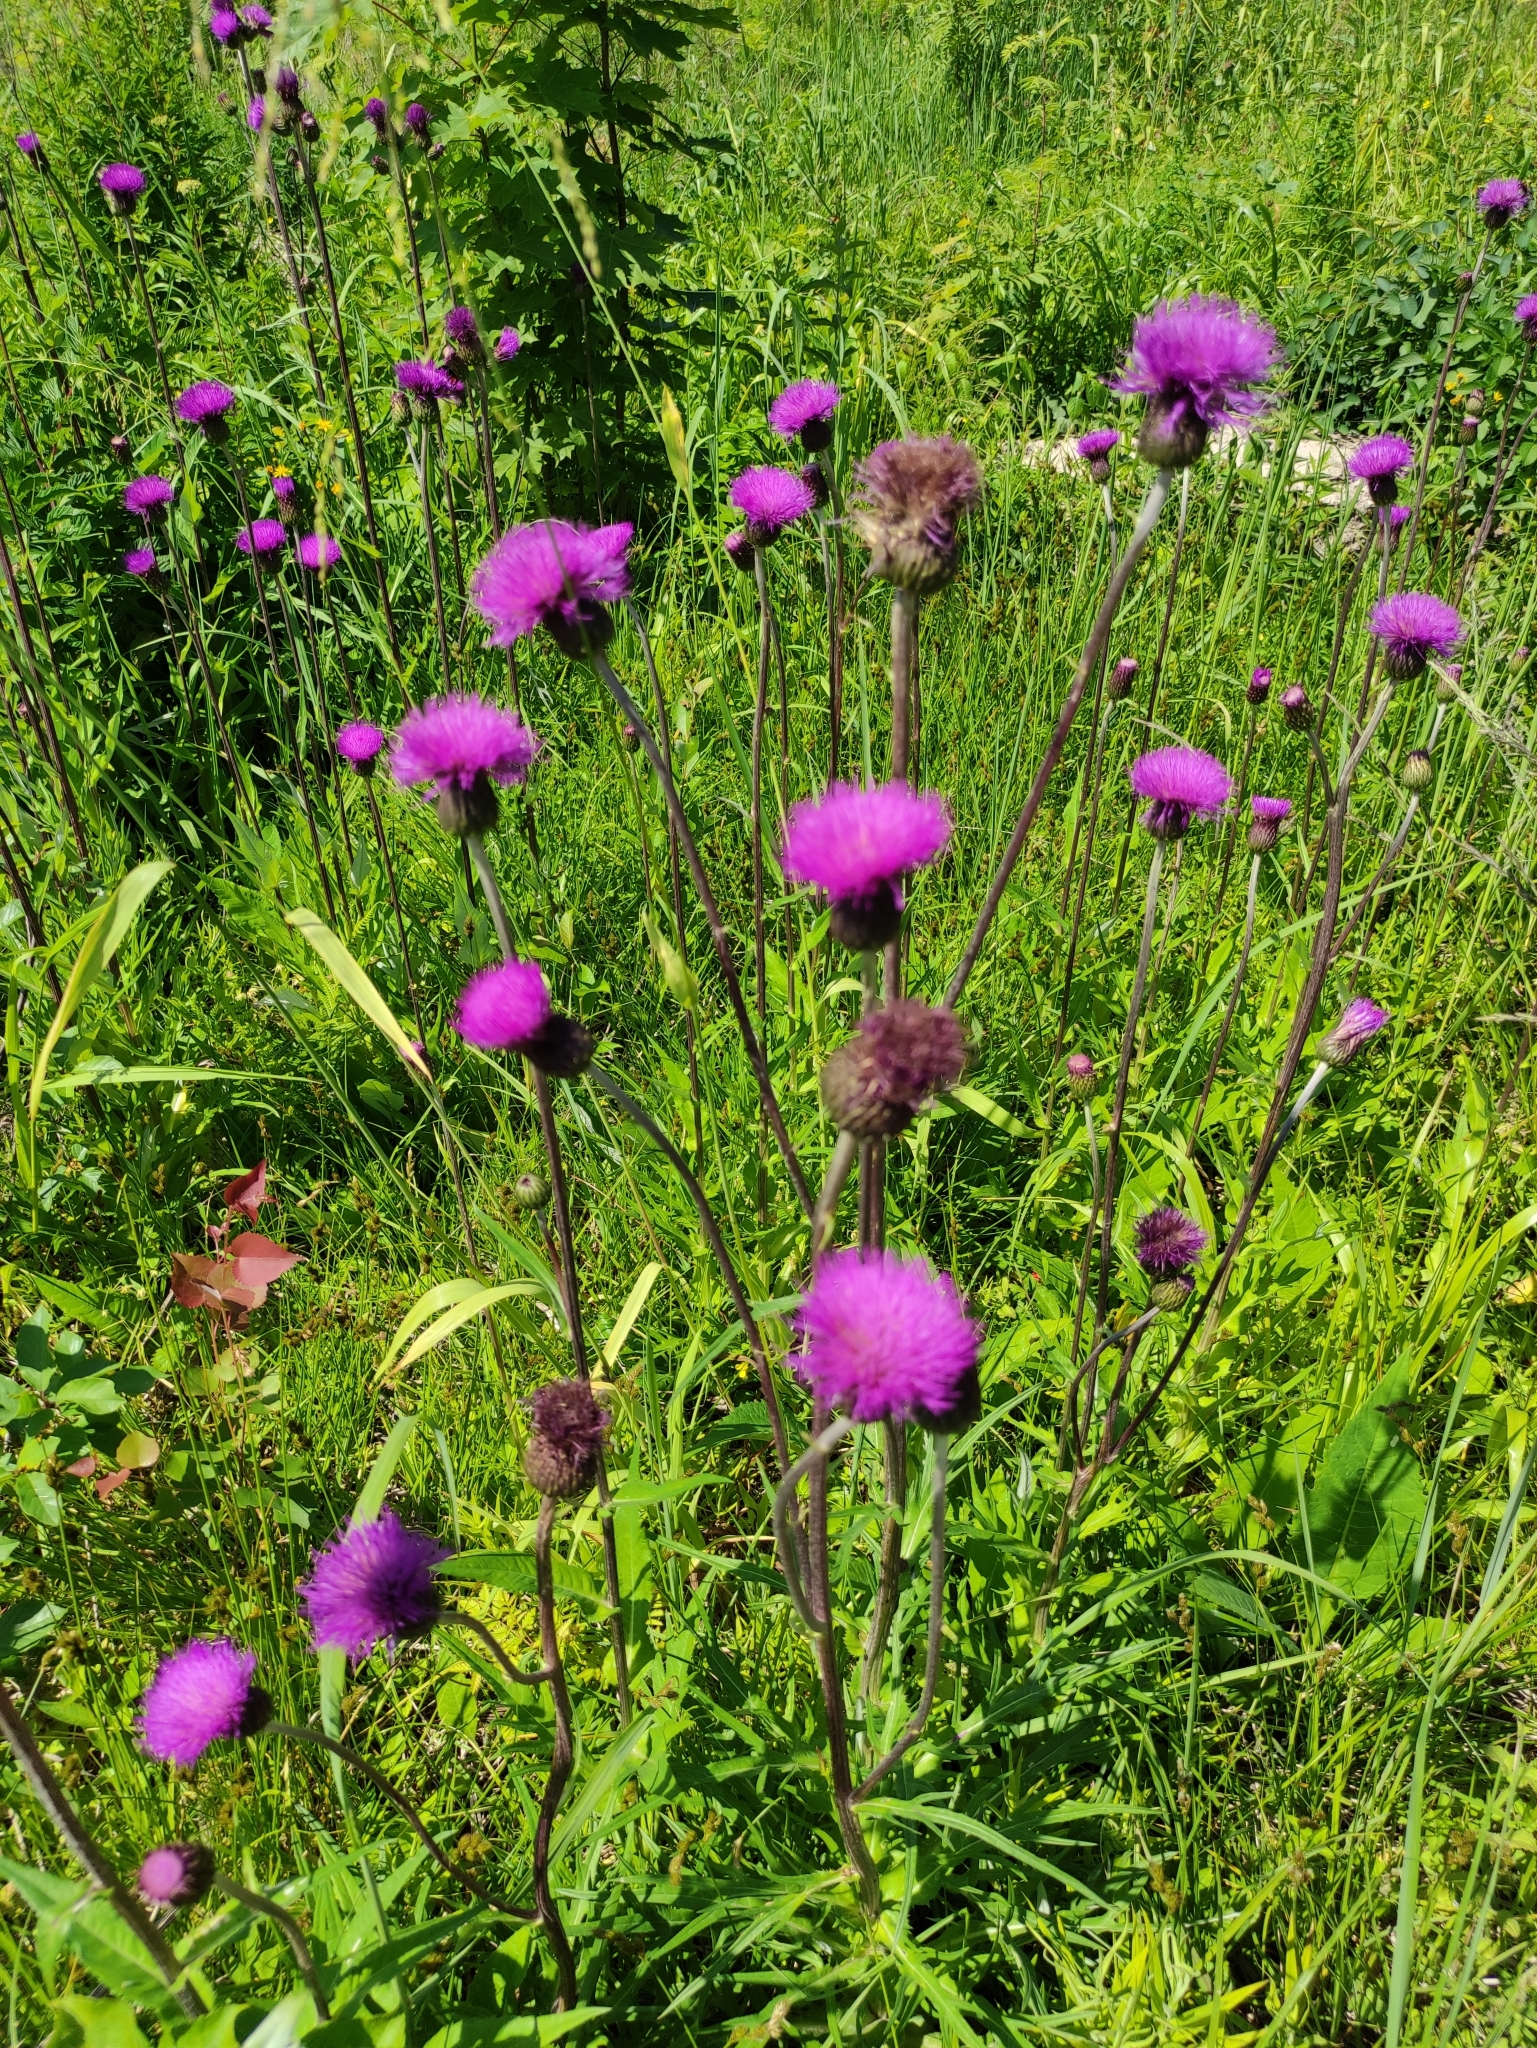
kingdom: Plantae
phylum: Tracheophyta
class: Magnoliopsida
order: Asterales
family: Asteraceae
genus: Cirsium
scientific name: Cirsium heterophyllum
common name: Melancholy thistle
